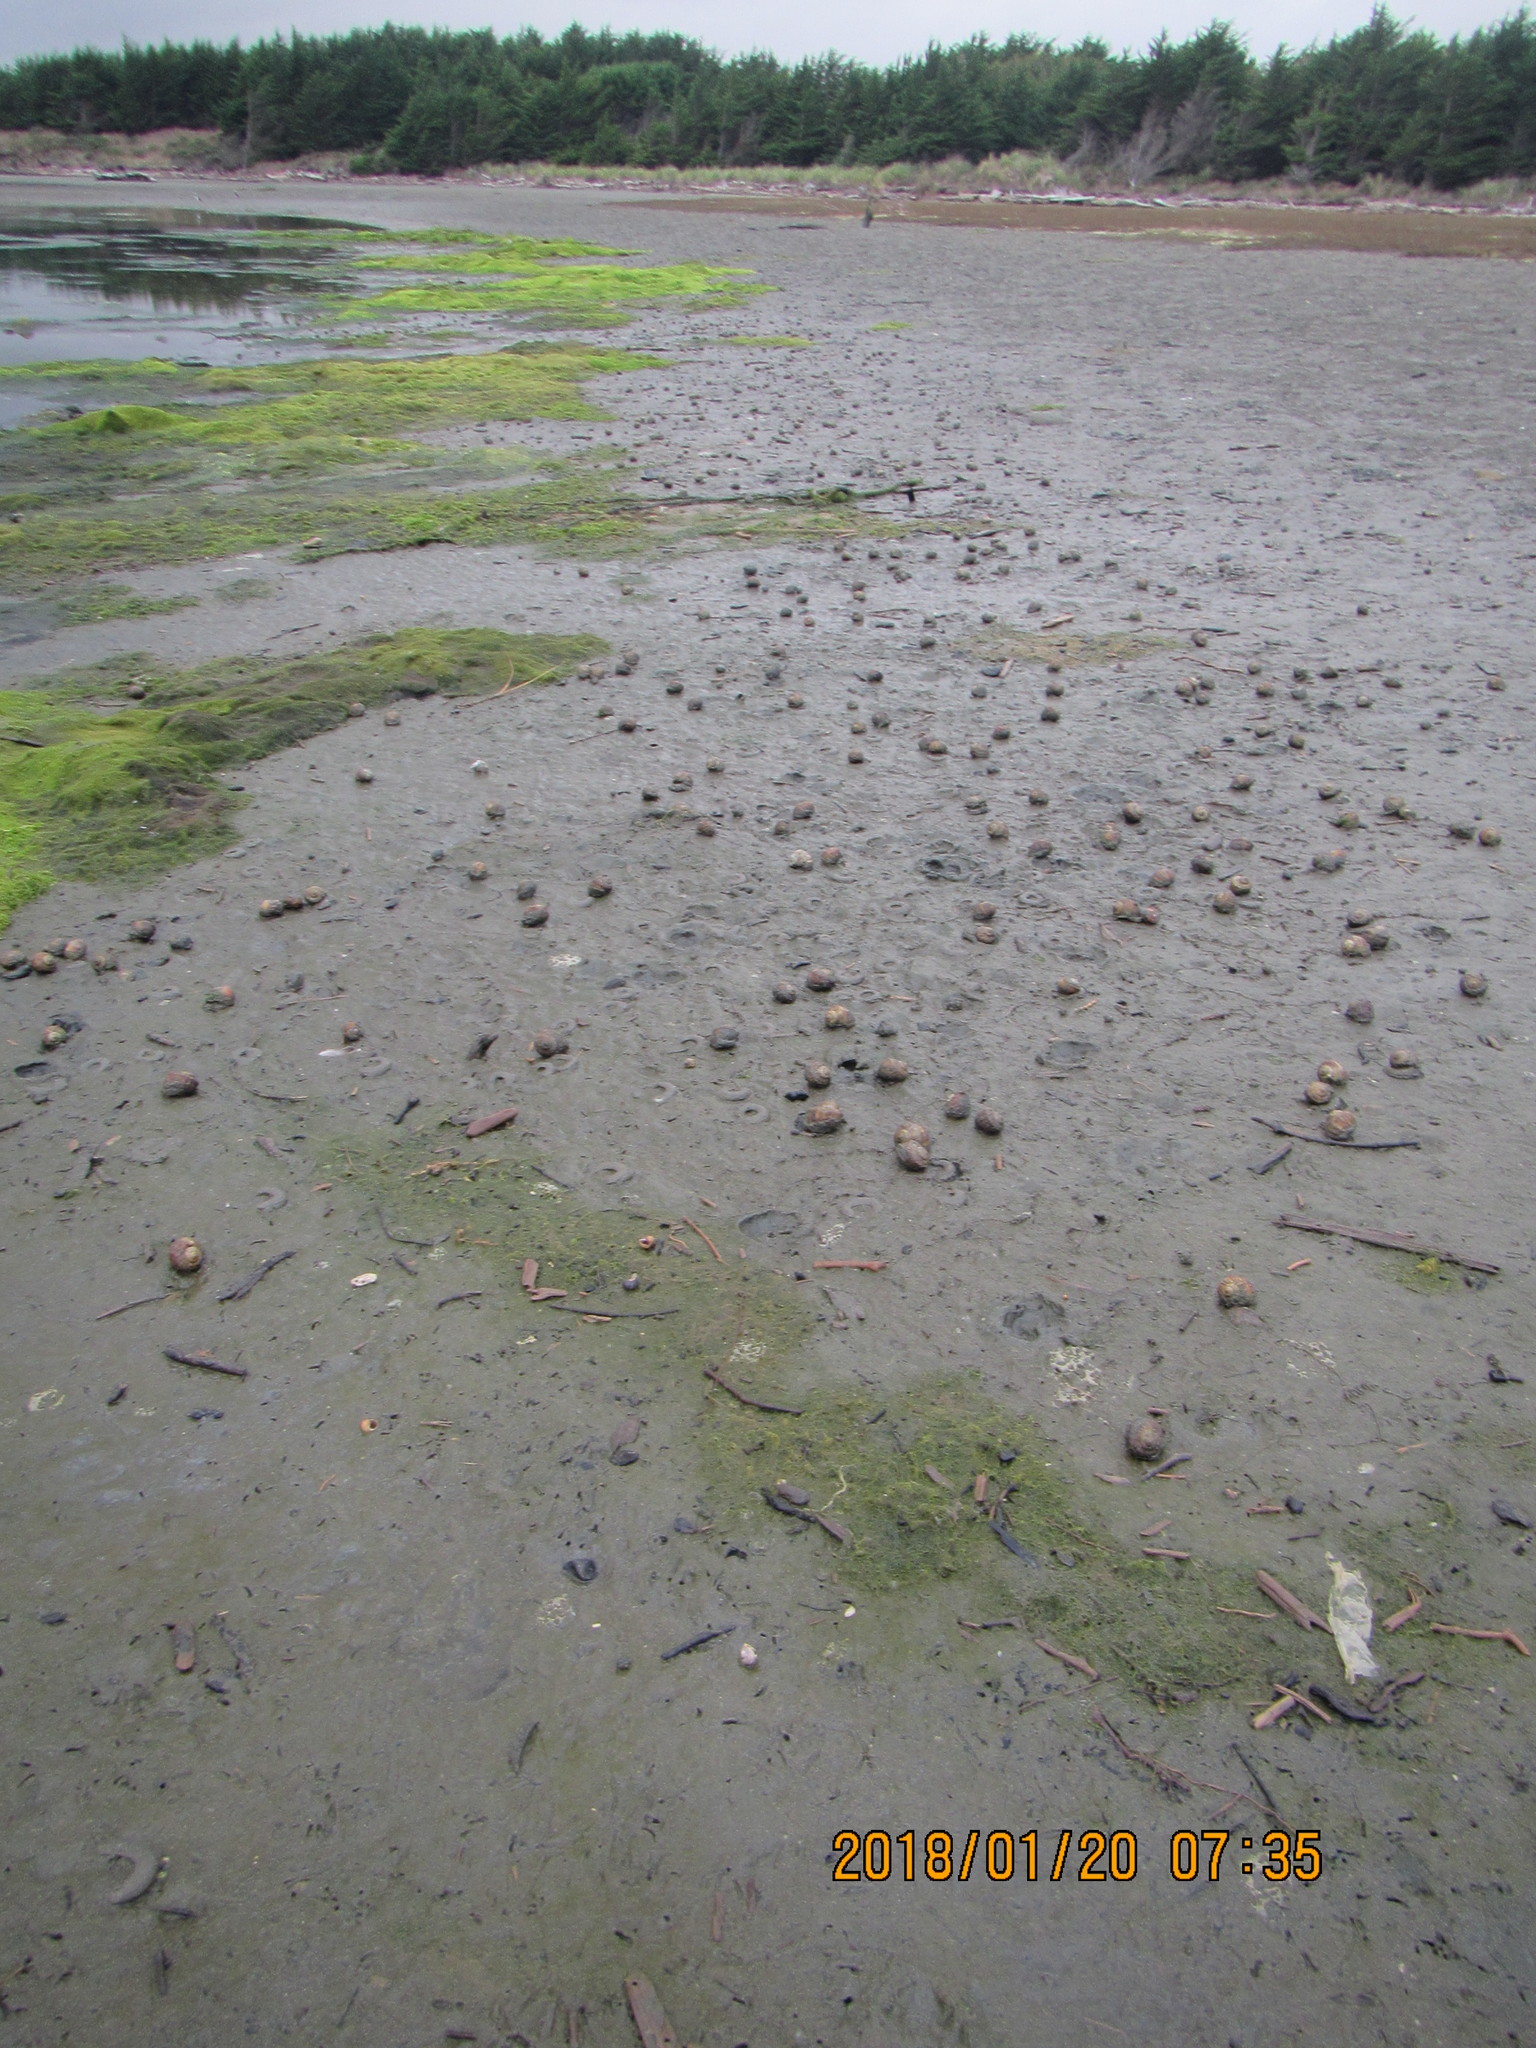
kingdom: Animalia
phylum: Mollusca
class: Gastropoda
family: Amphibolidae
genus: Amphibola
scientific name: Amphibola crenata
